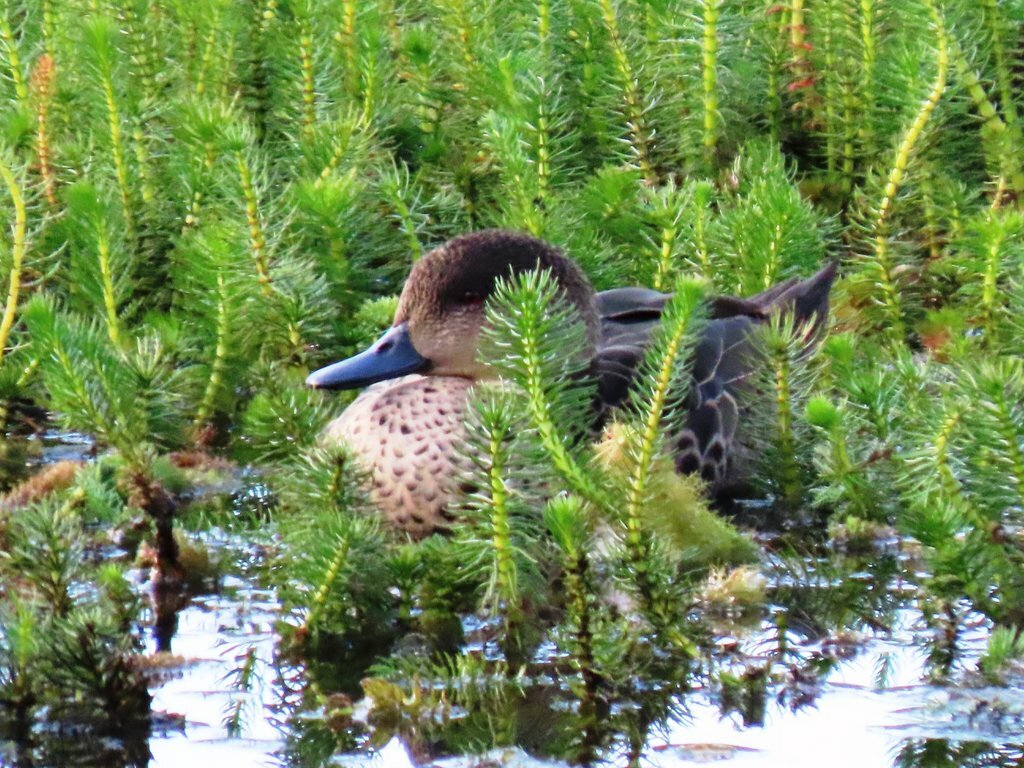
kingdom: Animalia
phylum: Chordata
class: Aves
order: Anseriformes
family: Anatidae
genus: Anas
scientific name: Anas gracilis
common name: Grey teal
